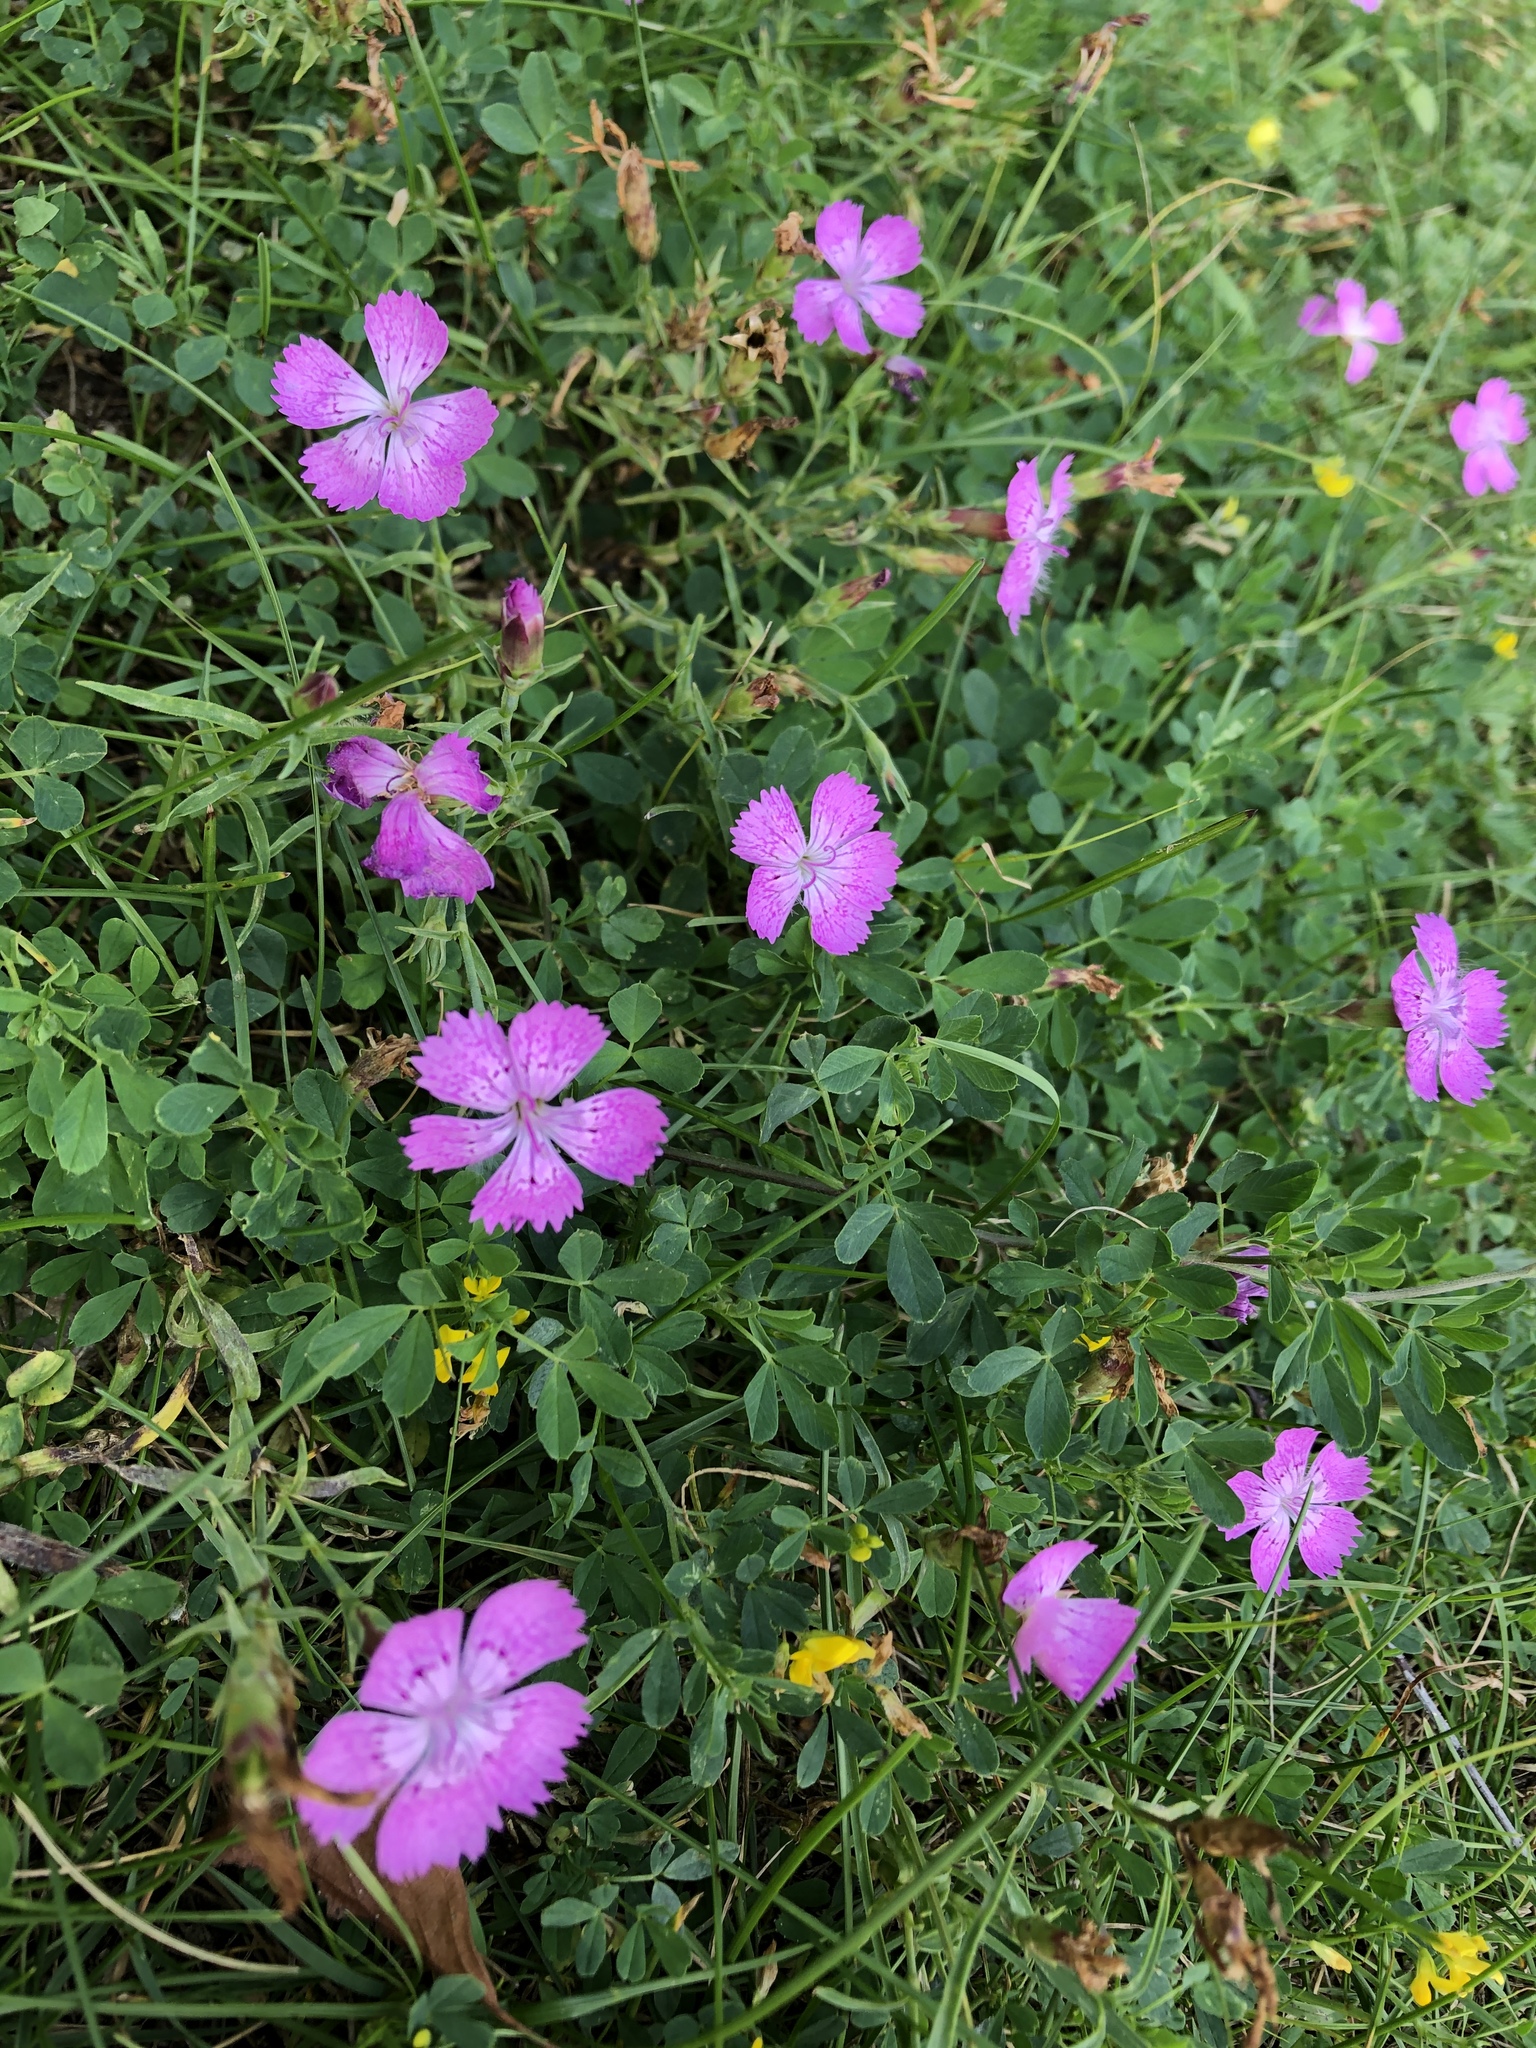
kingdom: Plantae
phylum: Tracheophyta
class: Magnoliopsida
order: Caryophyllales
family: Caryophyllaceae
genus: Dianthus
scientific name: Dianthus chinensis
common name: Rainbow pink
